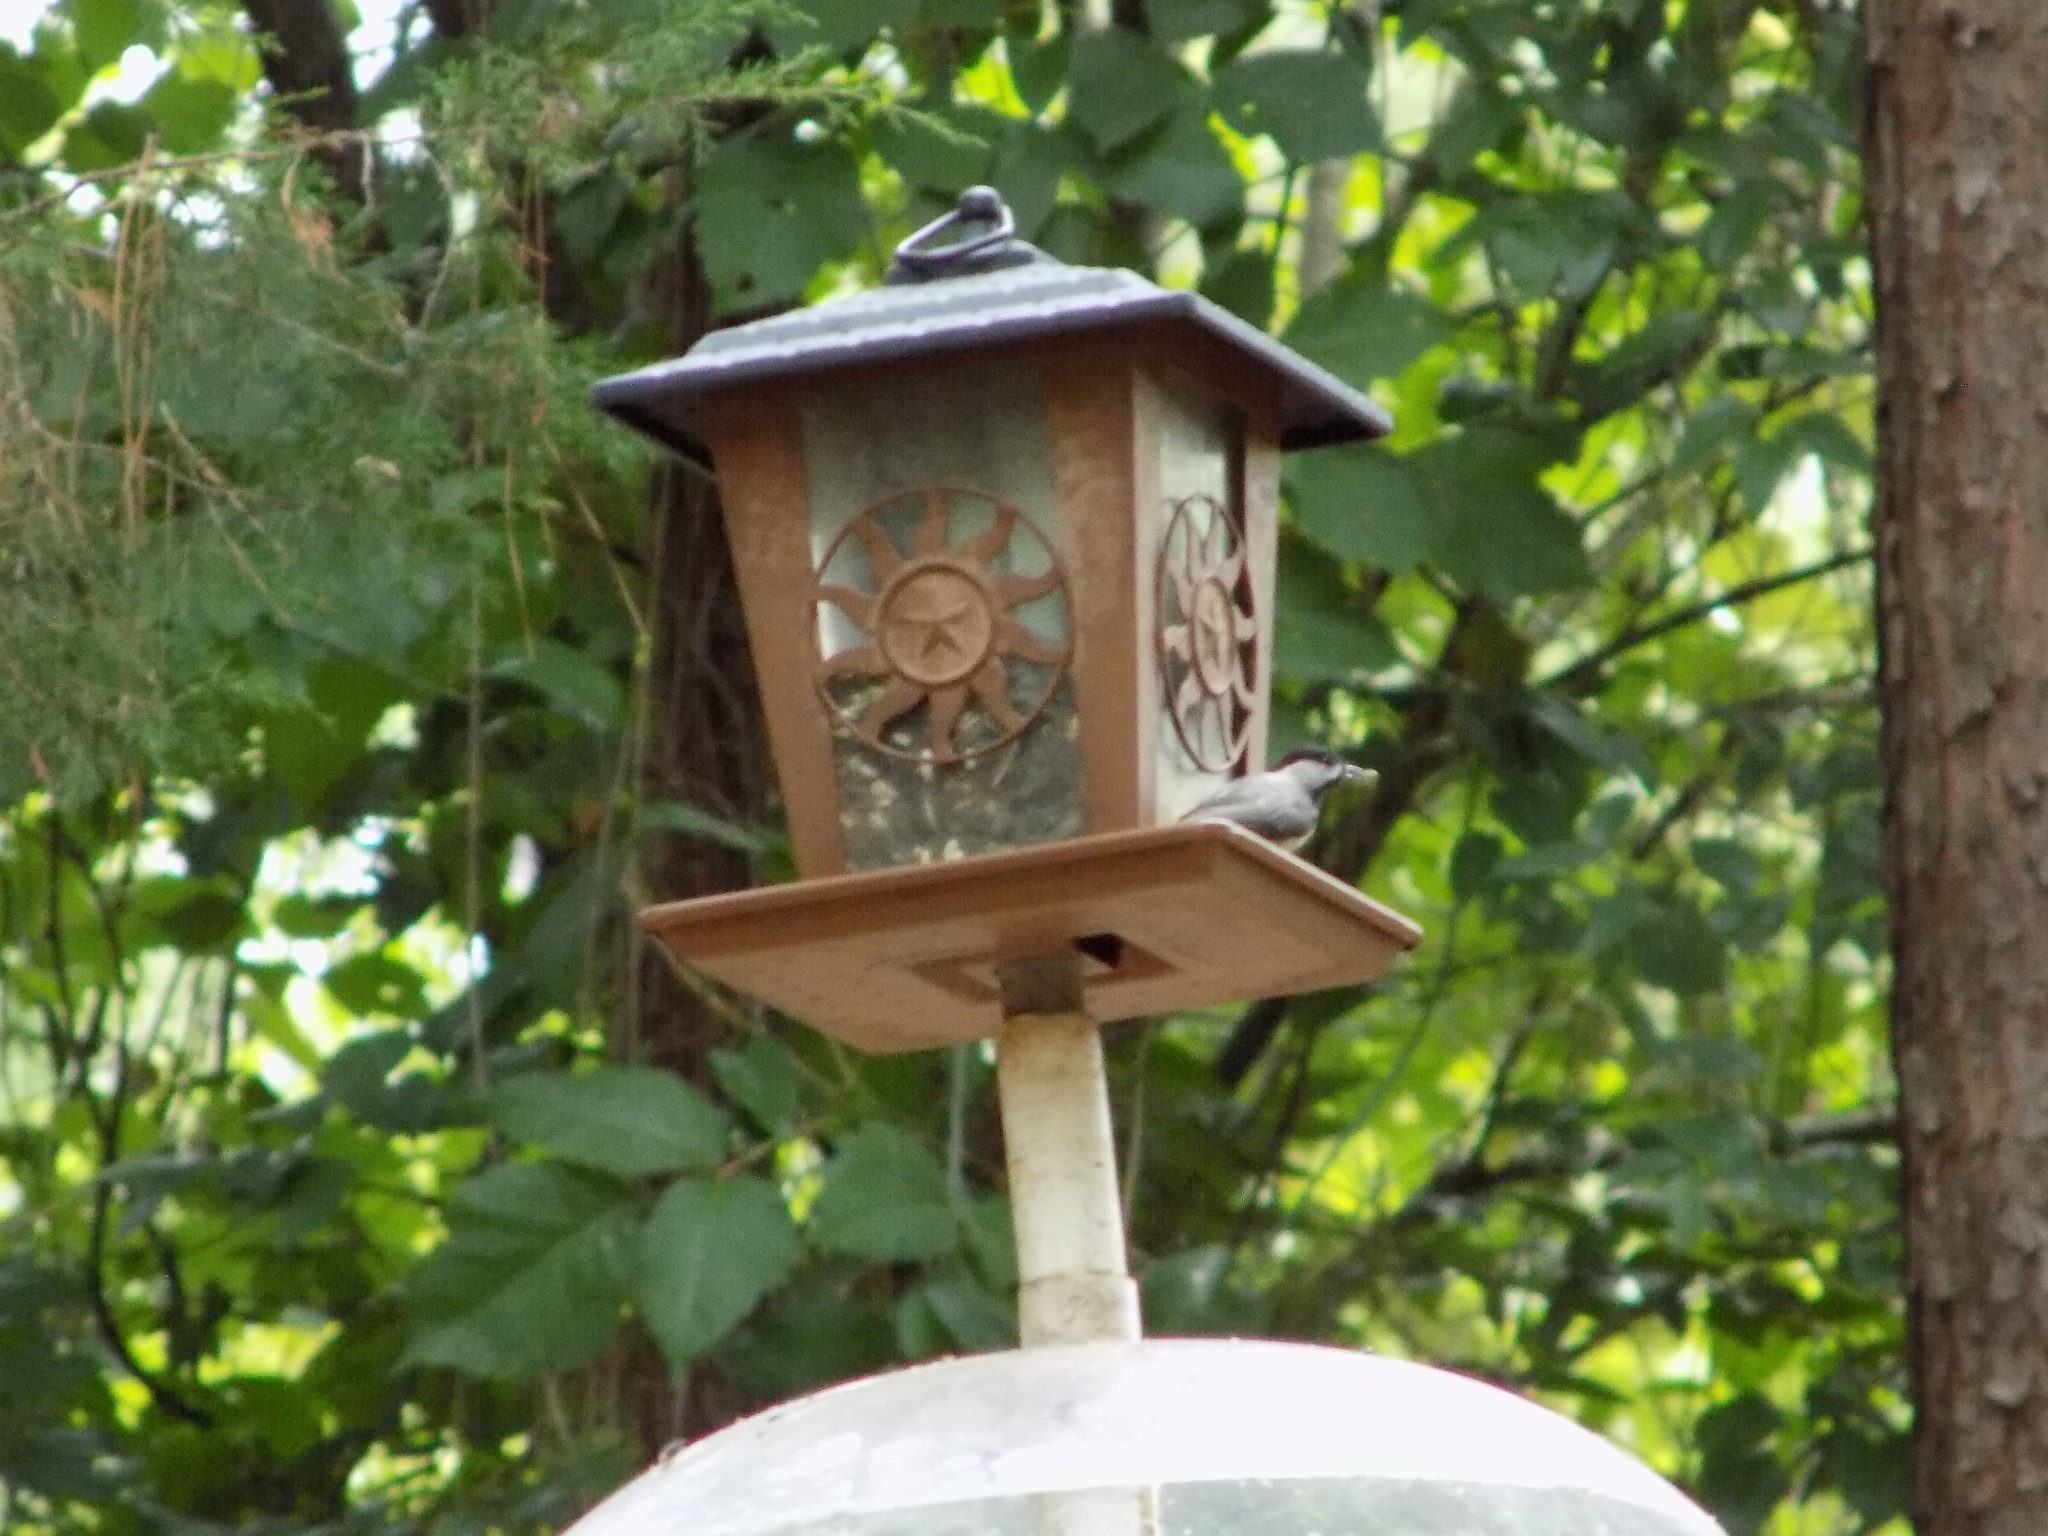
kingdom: Animalia
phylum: Chordata
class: Aves
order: Passeriformes
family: Paridae
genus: Poecile
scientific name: Poecile carolinensis
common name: Carolina chickadee
